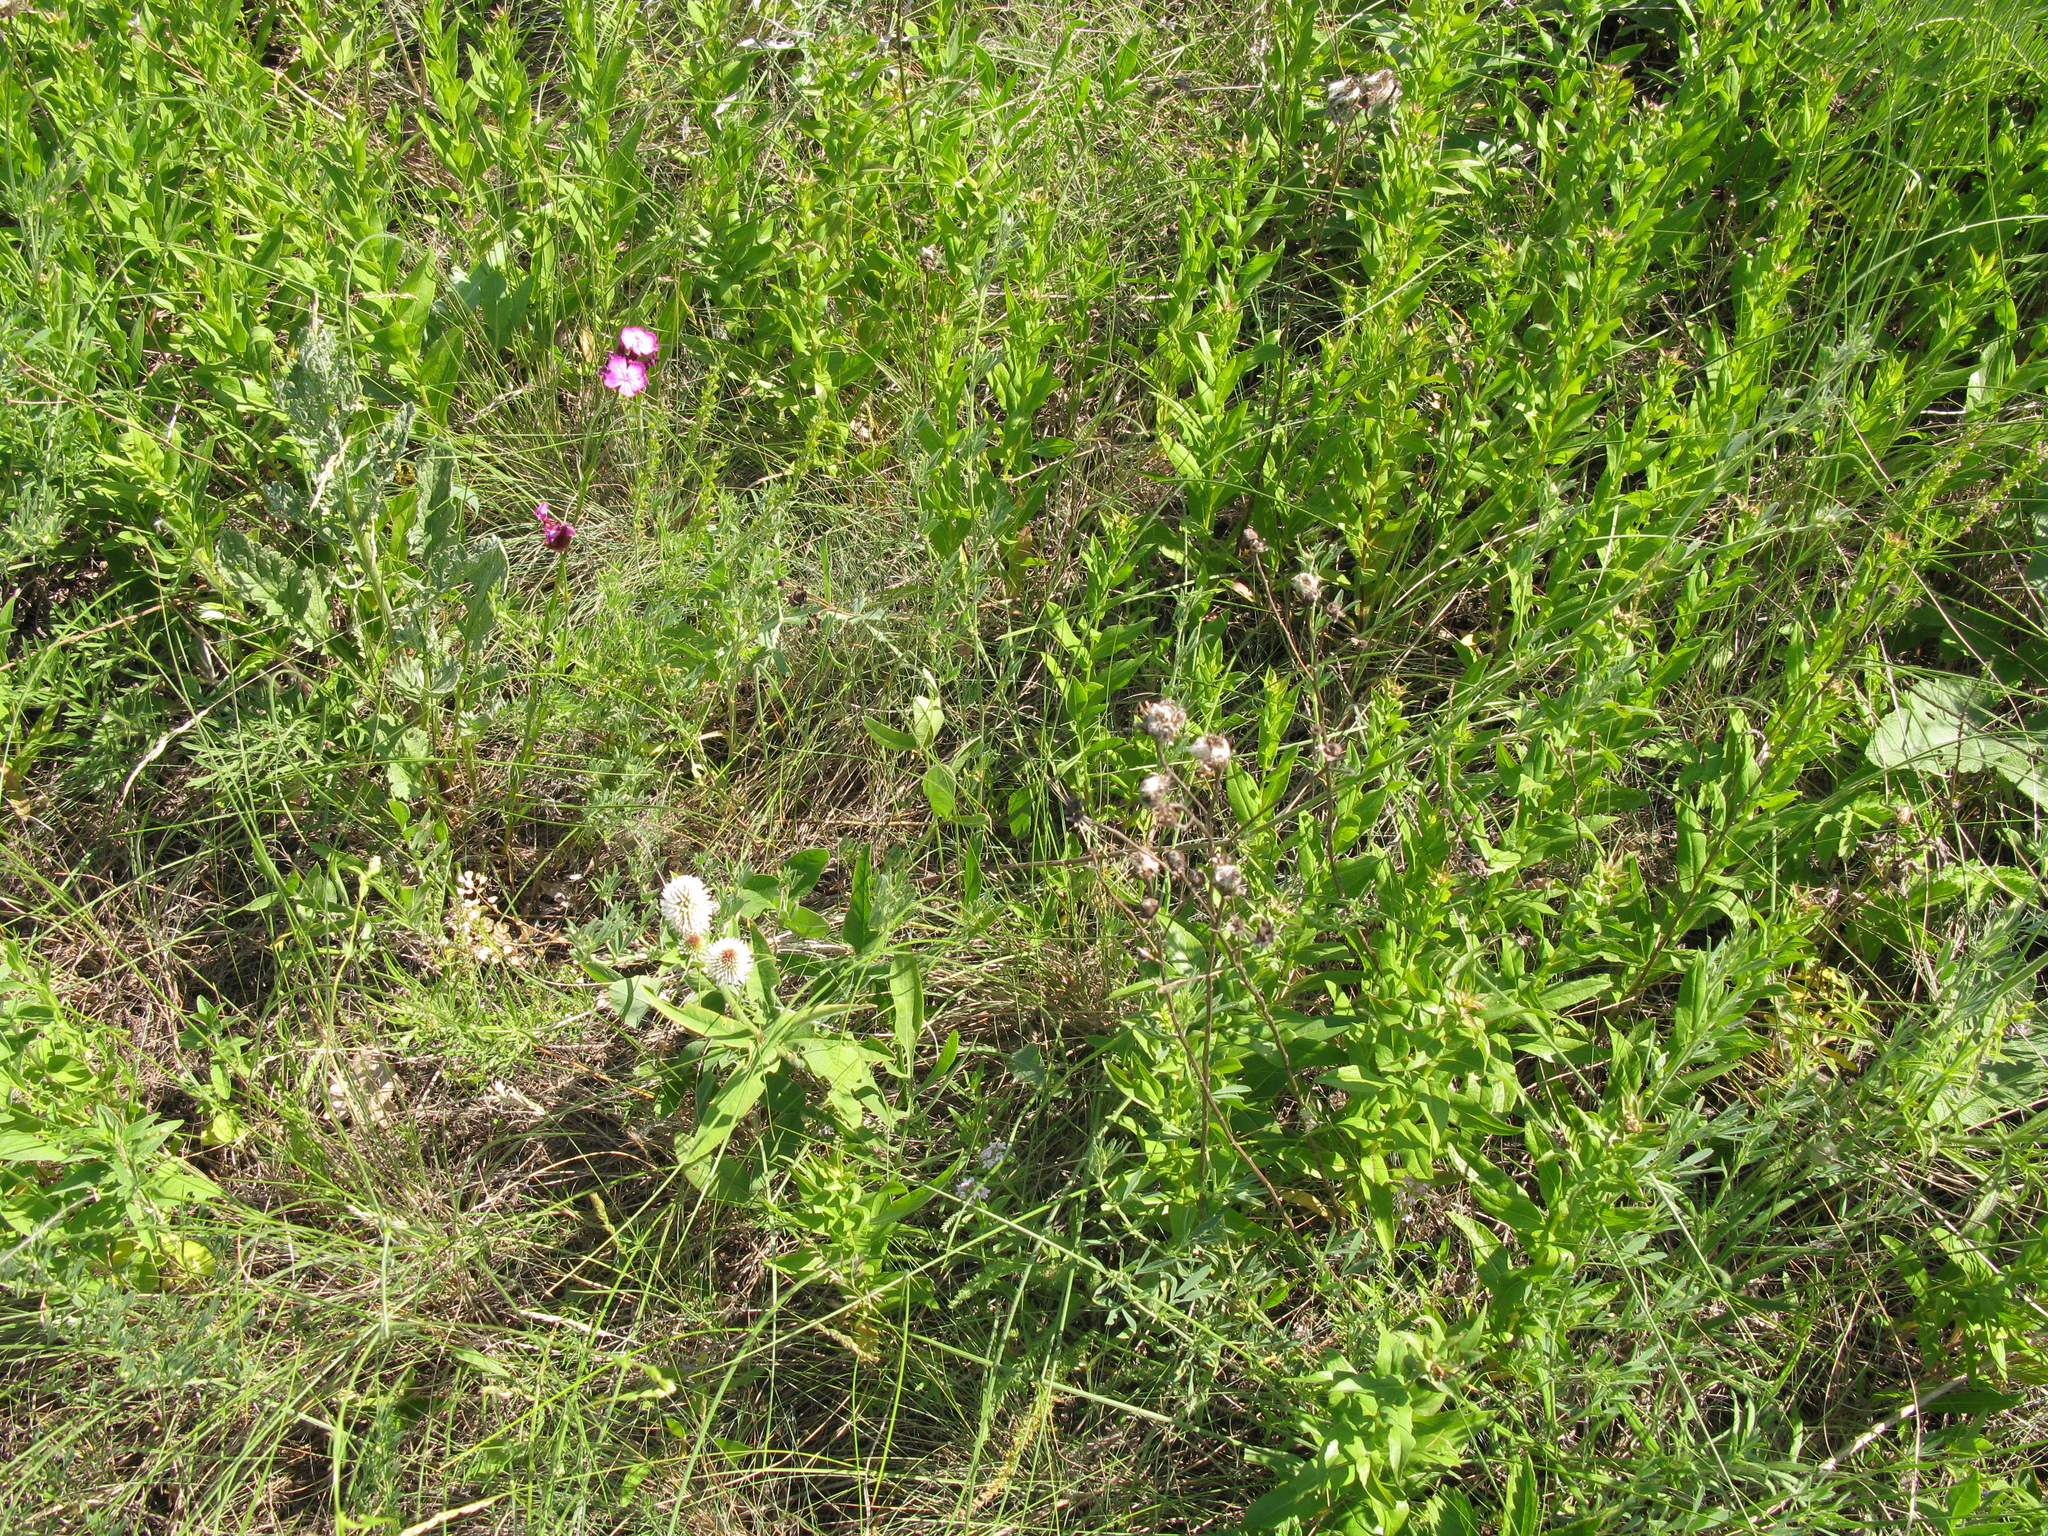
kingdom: Plantae
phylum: Tracheophyta
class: Magnoliopsida
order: Fabales
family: Fabaceae
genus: Trifolium
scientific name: Trifolium montanum
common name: Mountain clover
